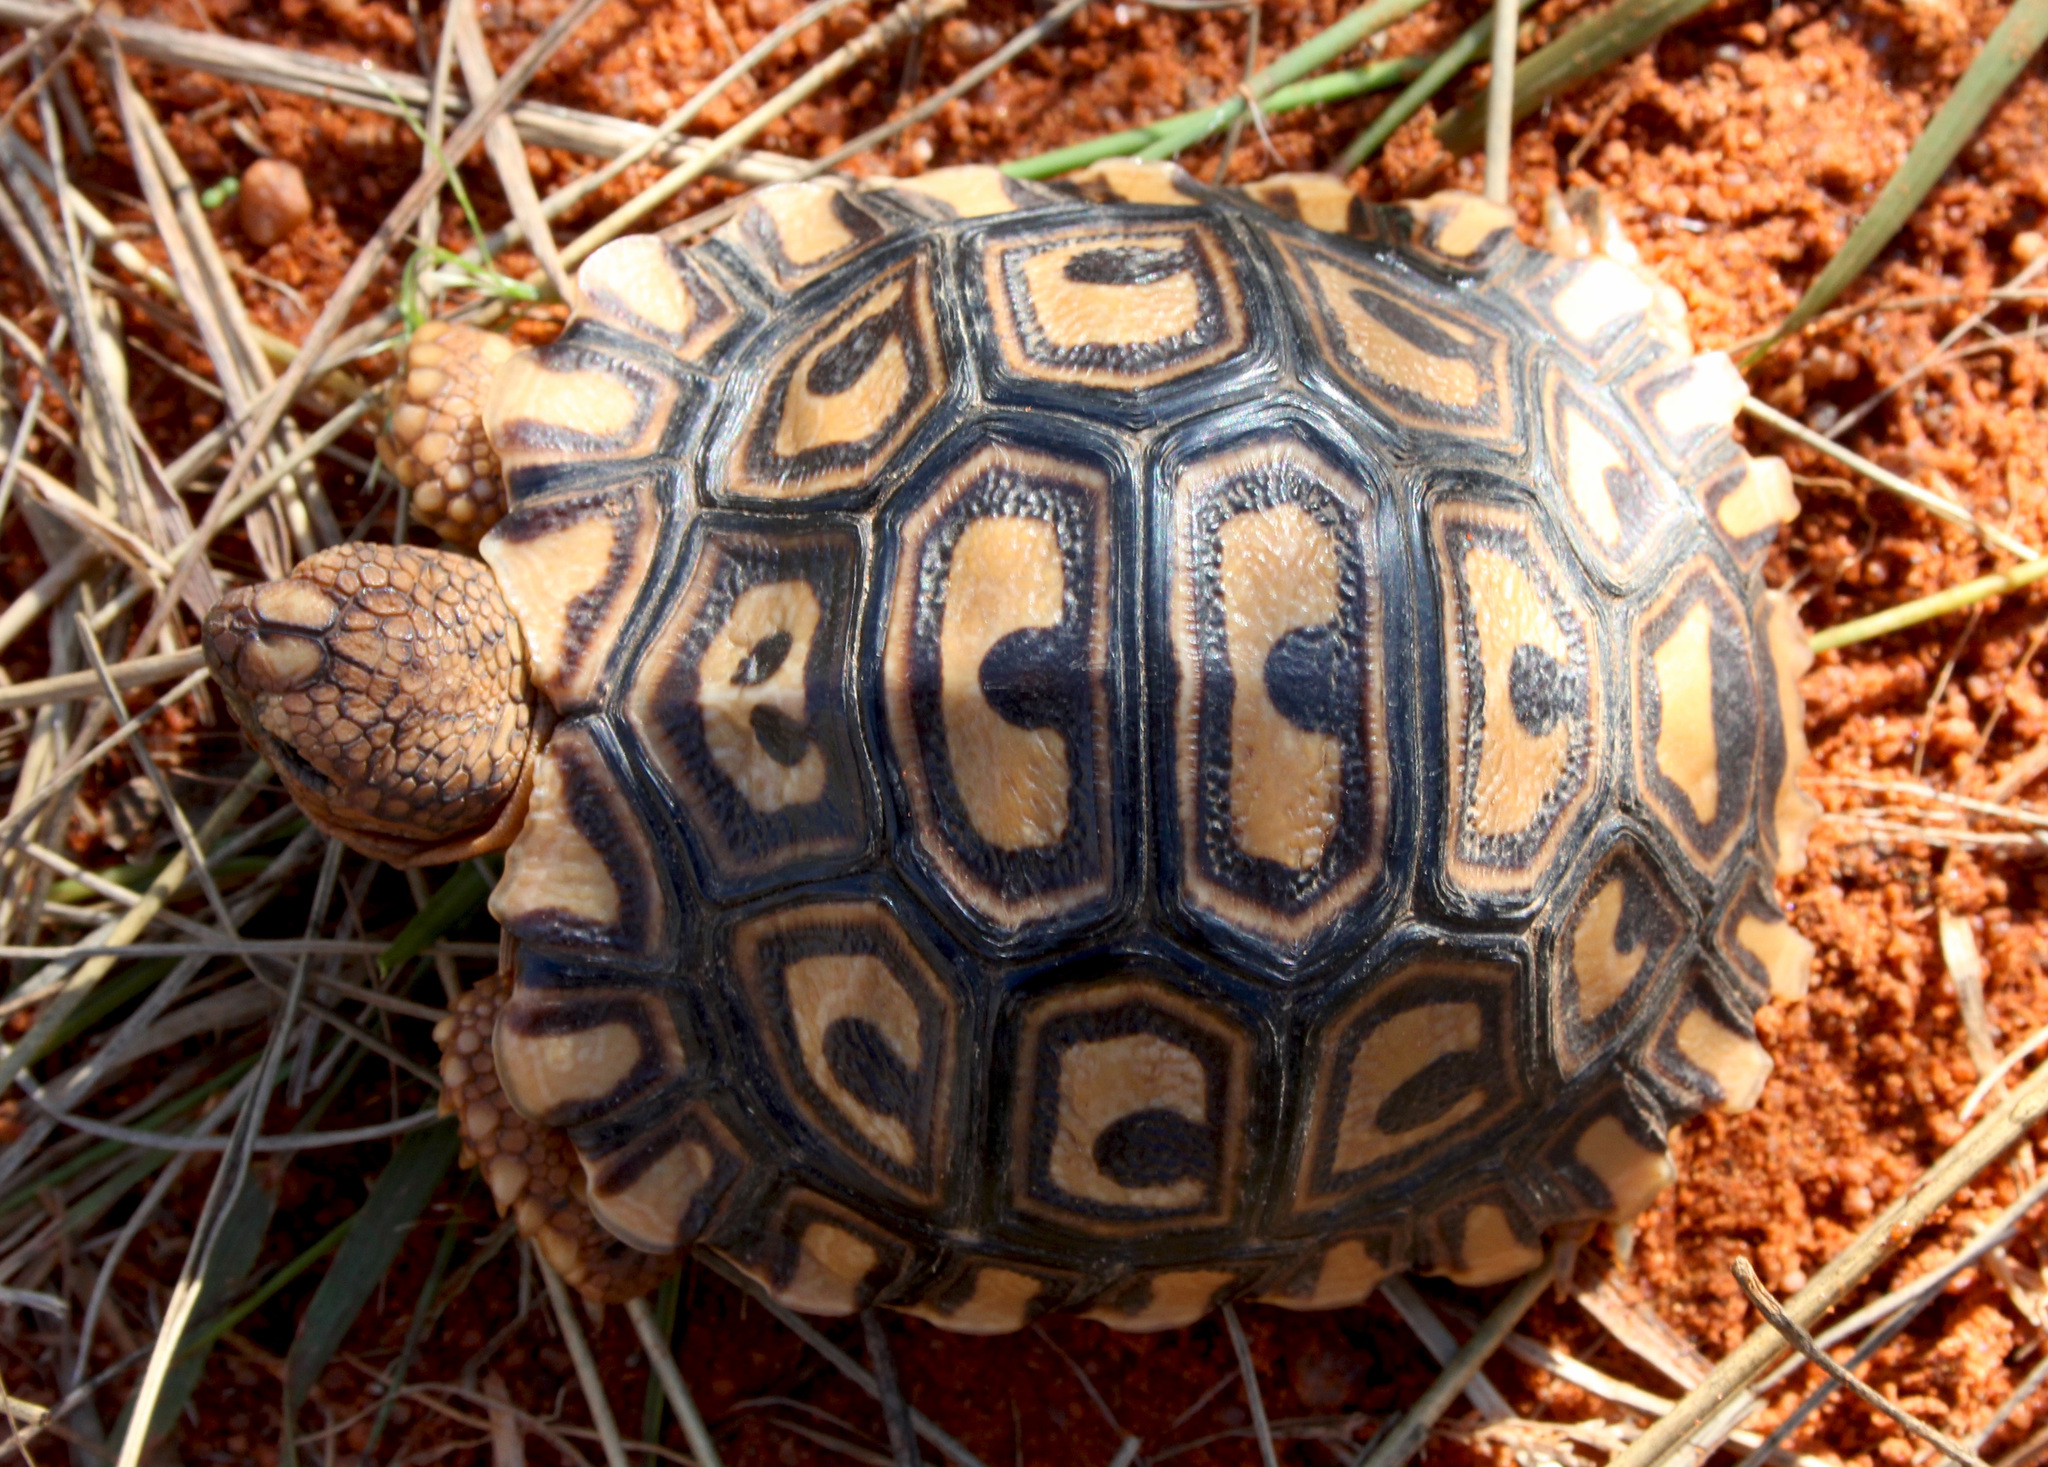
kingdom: Animalia
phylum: Chordata
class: Testudines
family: Testudinidae
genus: Stigmochelys
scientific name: Stigmochelys pardalis
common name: Leopard tortoise
